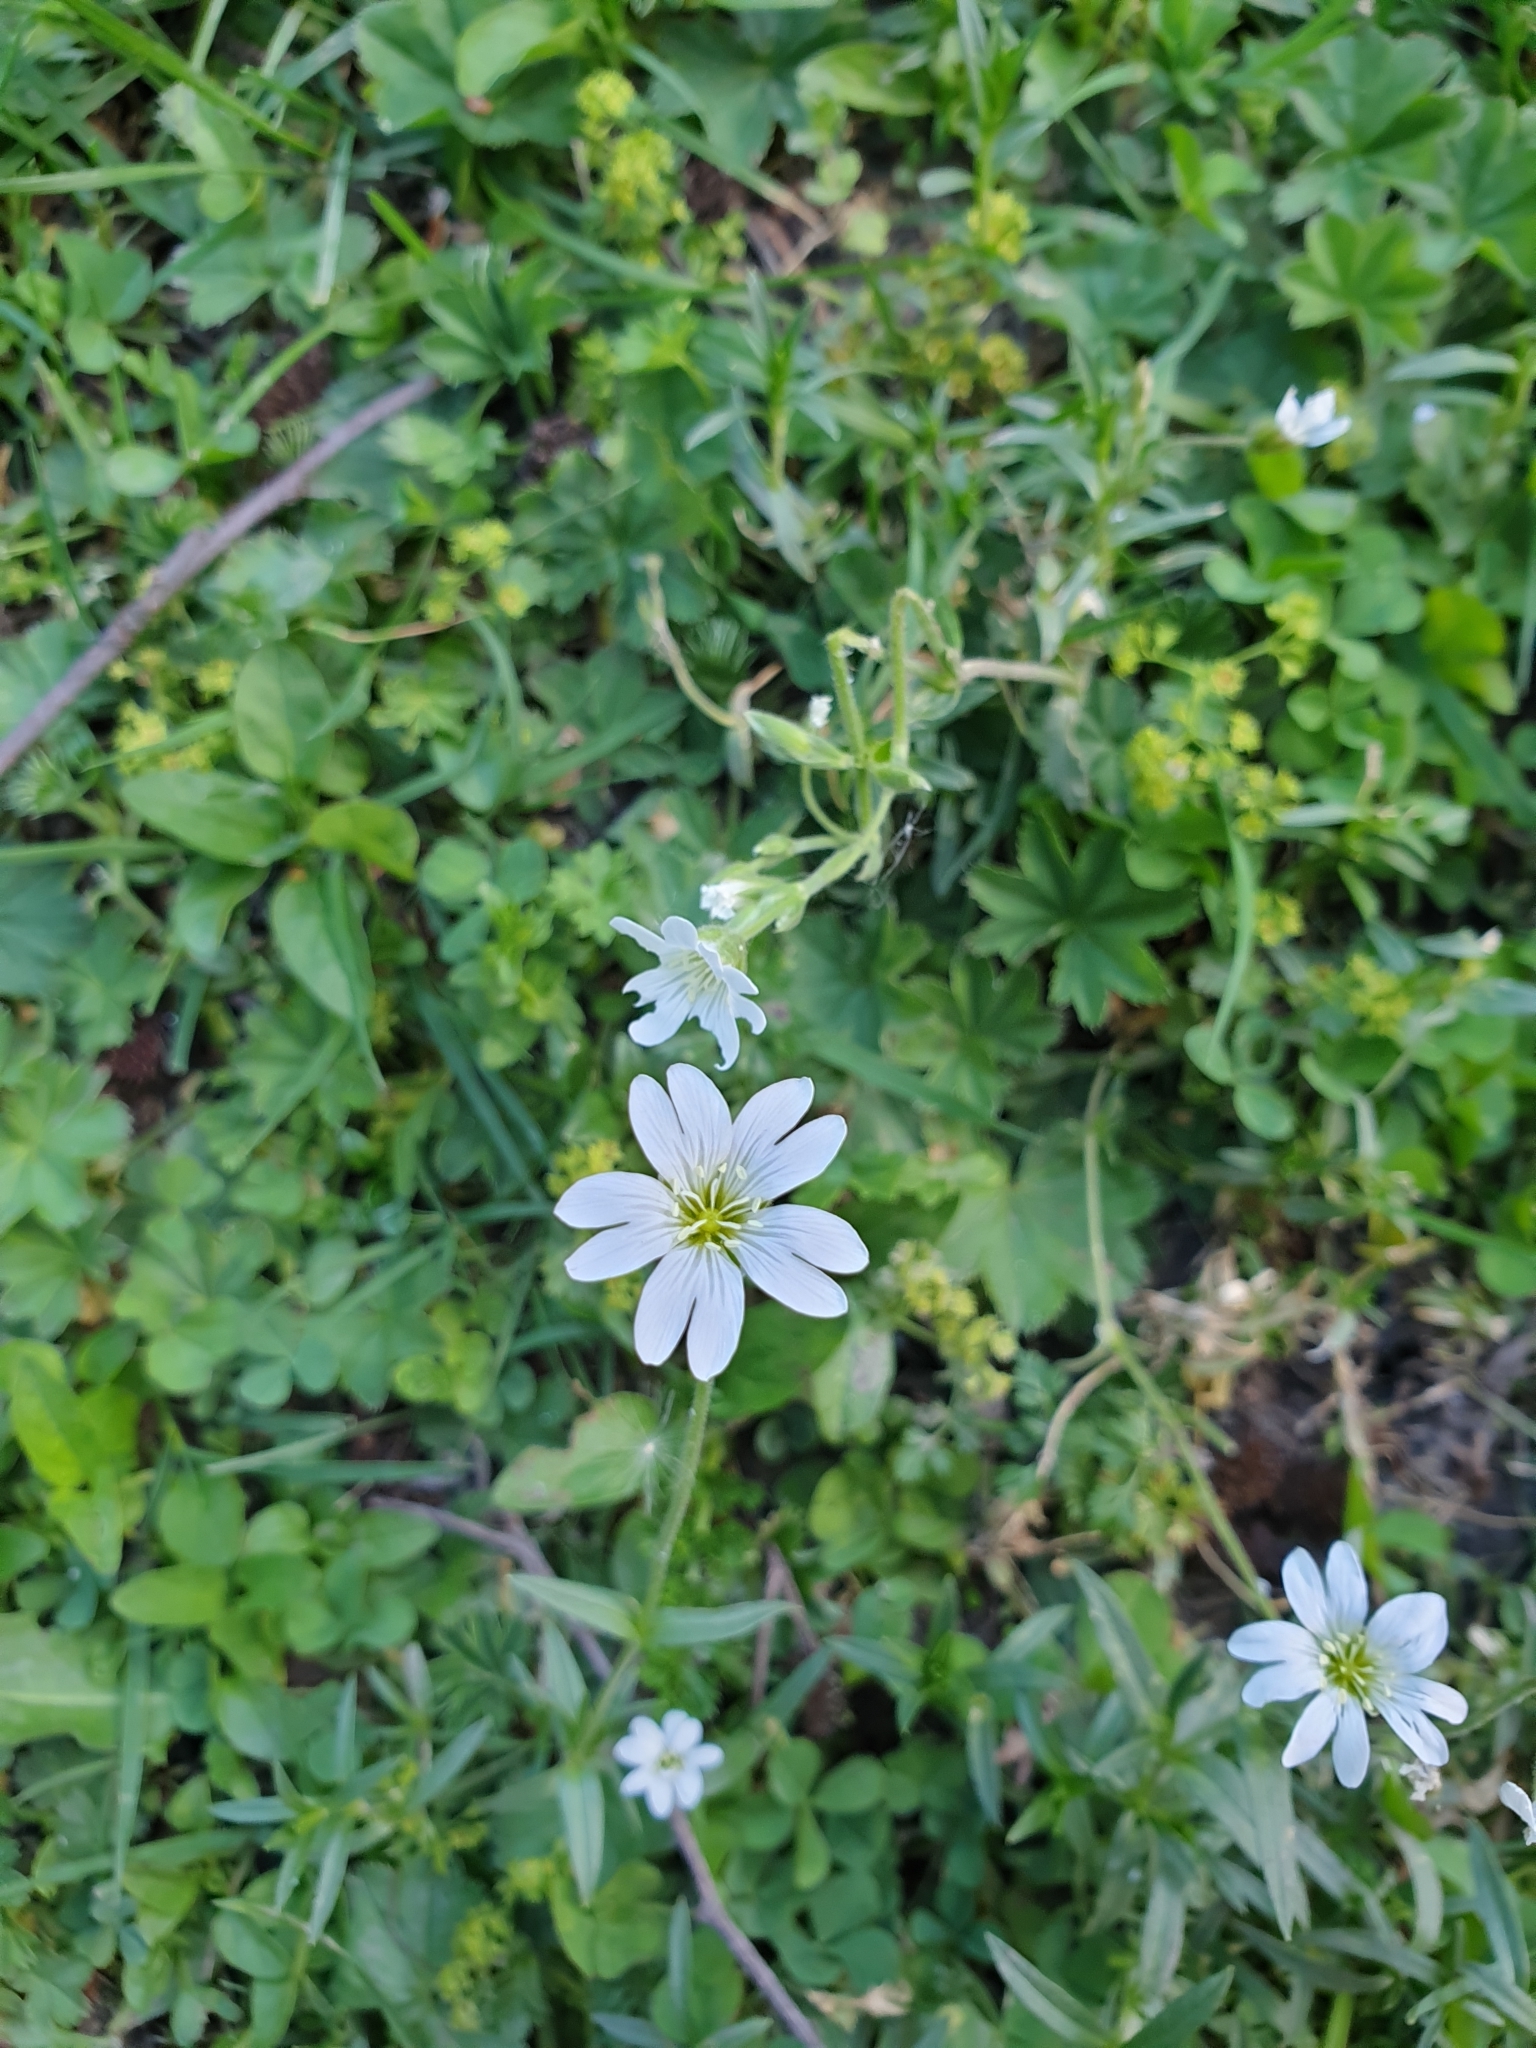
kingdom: Plantae
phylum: Tracheophyta
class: Magnoliopsida
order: Caryophyllales
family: Caryophyllaceae
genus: Cerastium
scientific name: Cerastium arvense
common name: Field mouse-ear
